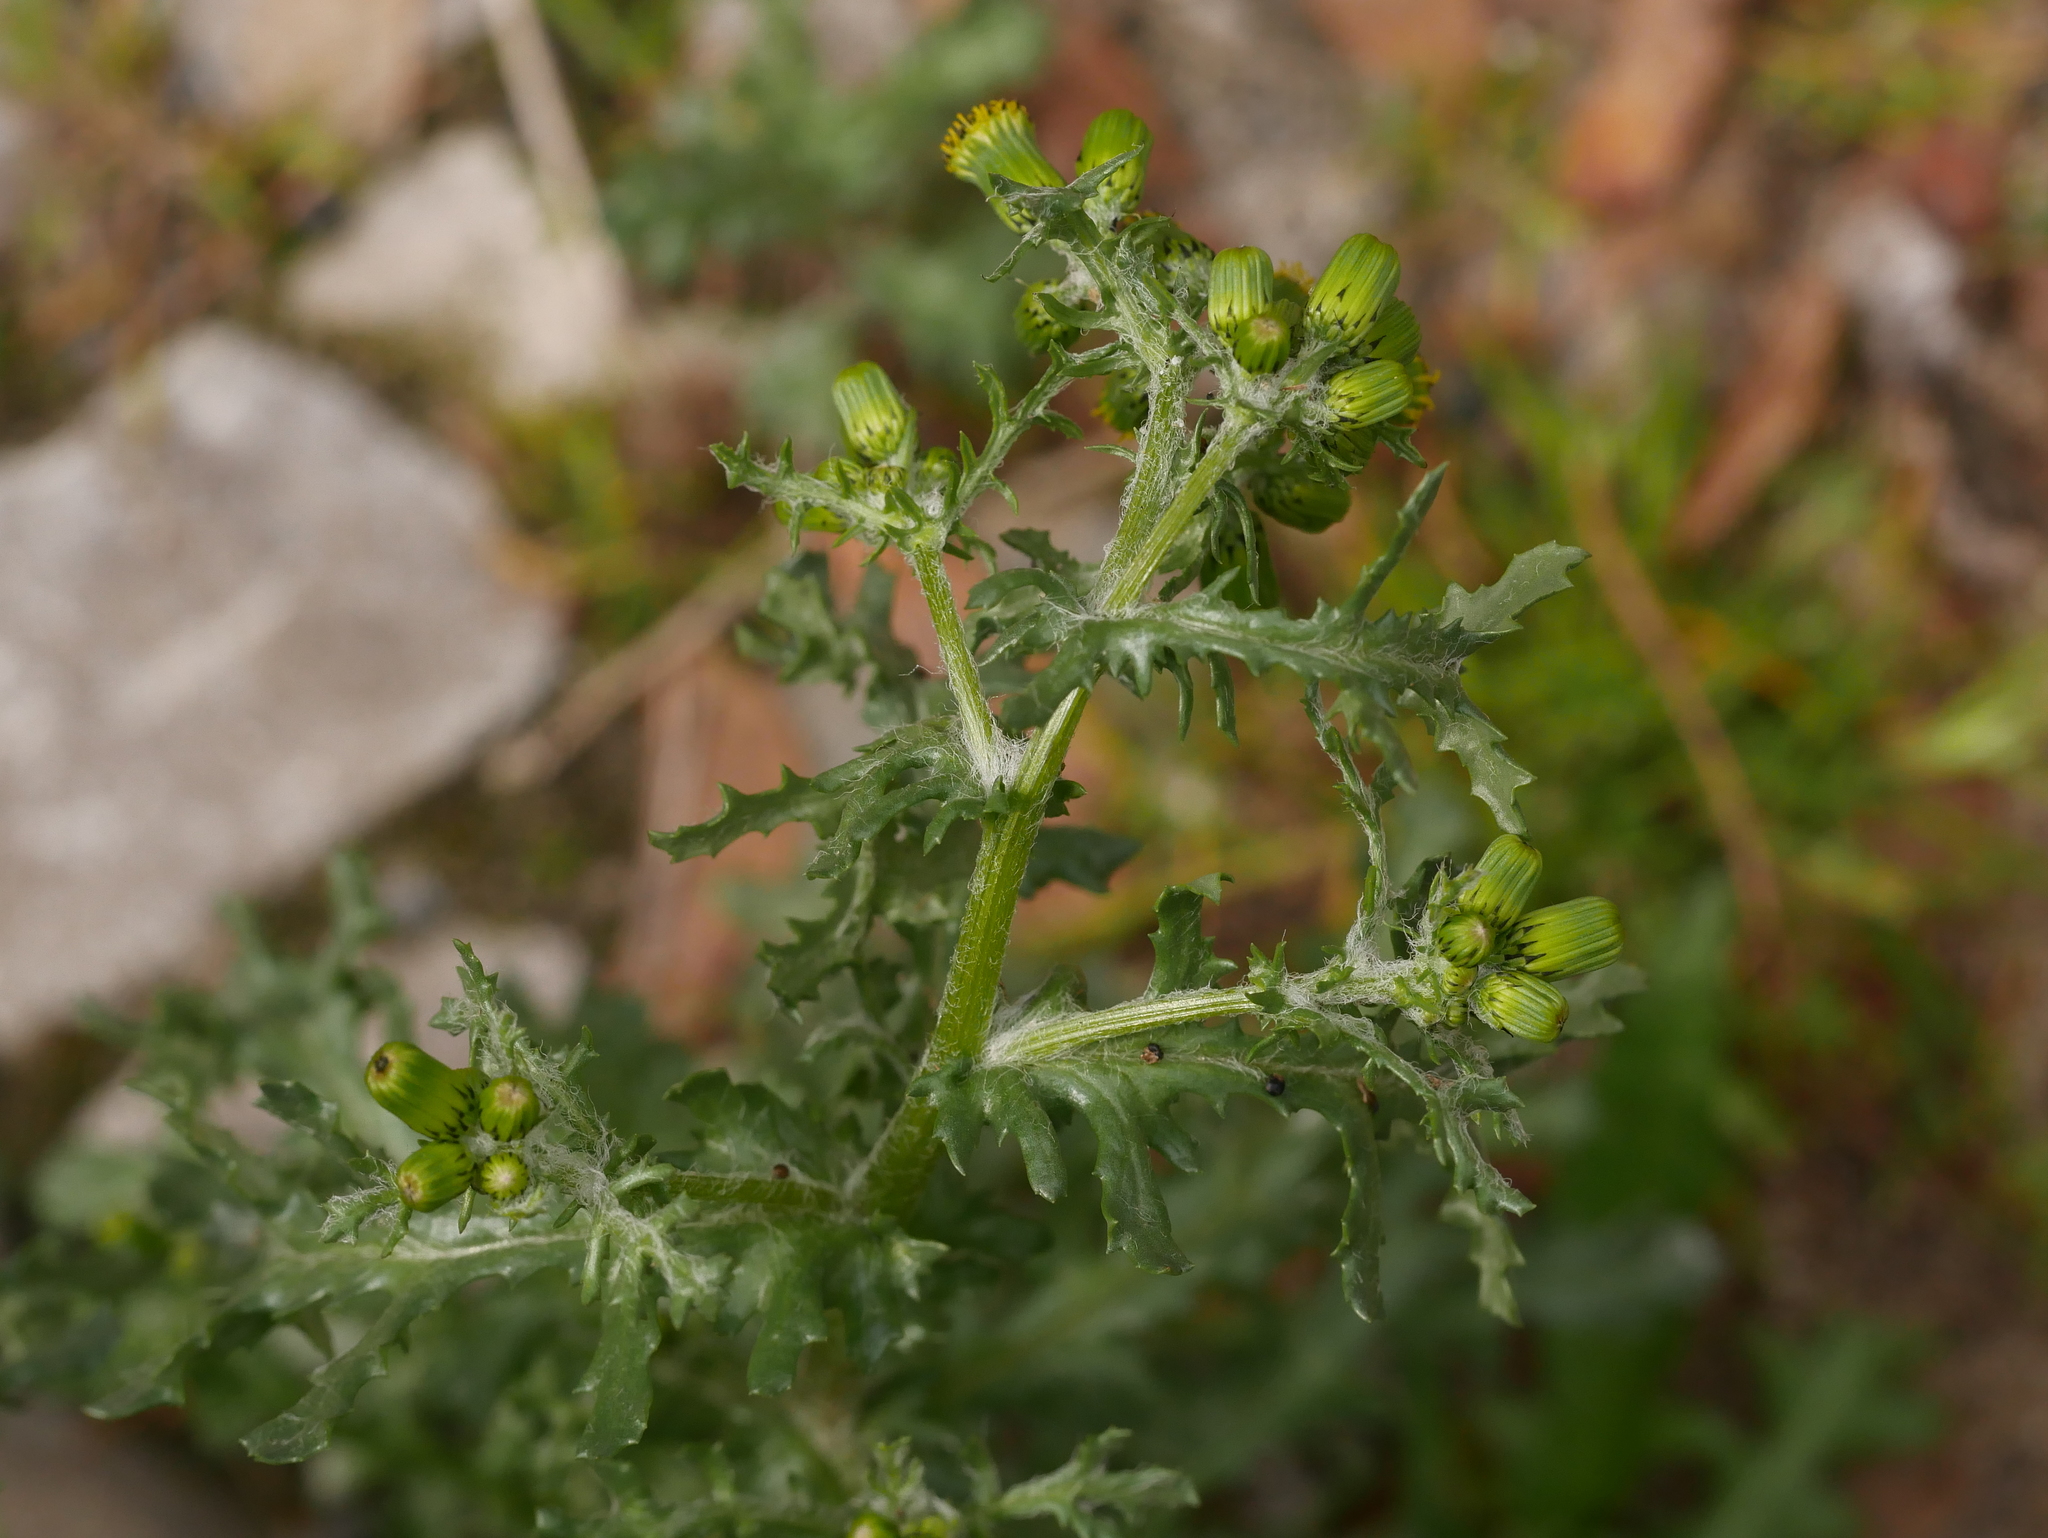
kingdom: Plantae
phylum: Tracheophyta
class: Magnoliopsida
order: Asterales
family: Asteraceae
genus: Senecio
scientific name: Senecio vulgaris
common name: Old-man-in-the-spring
